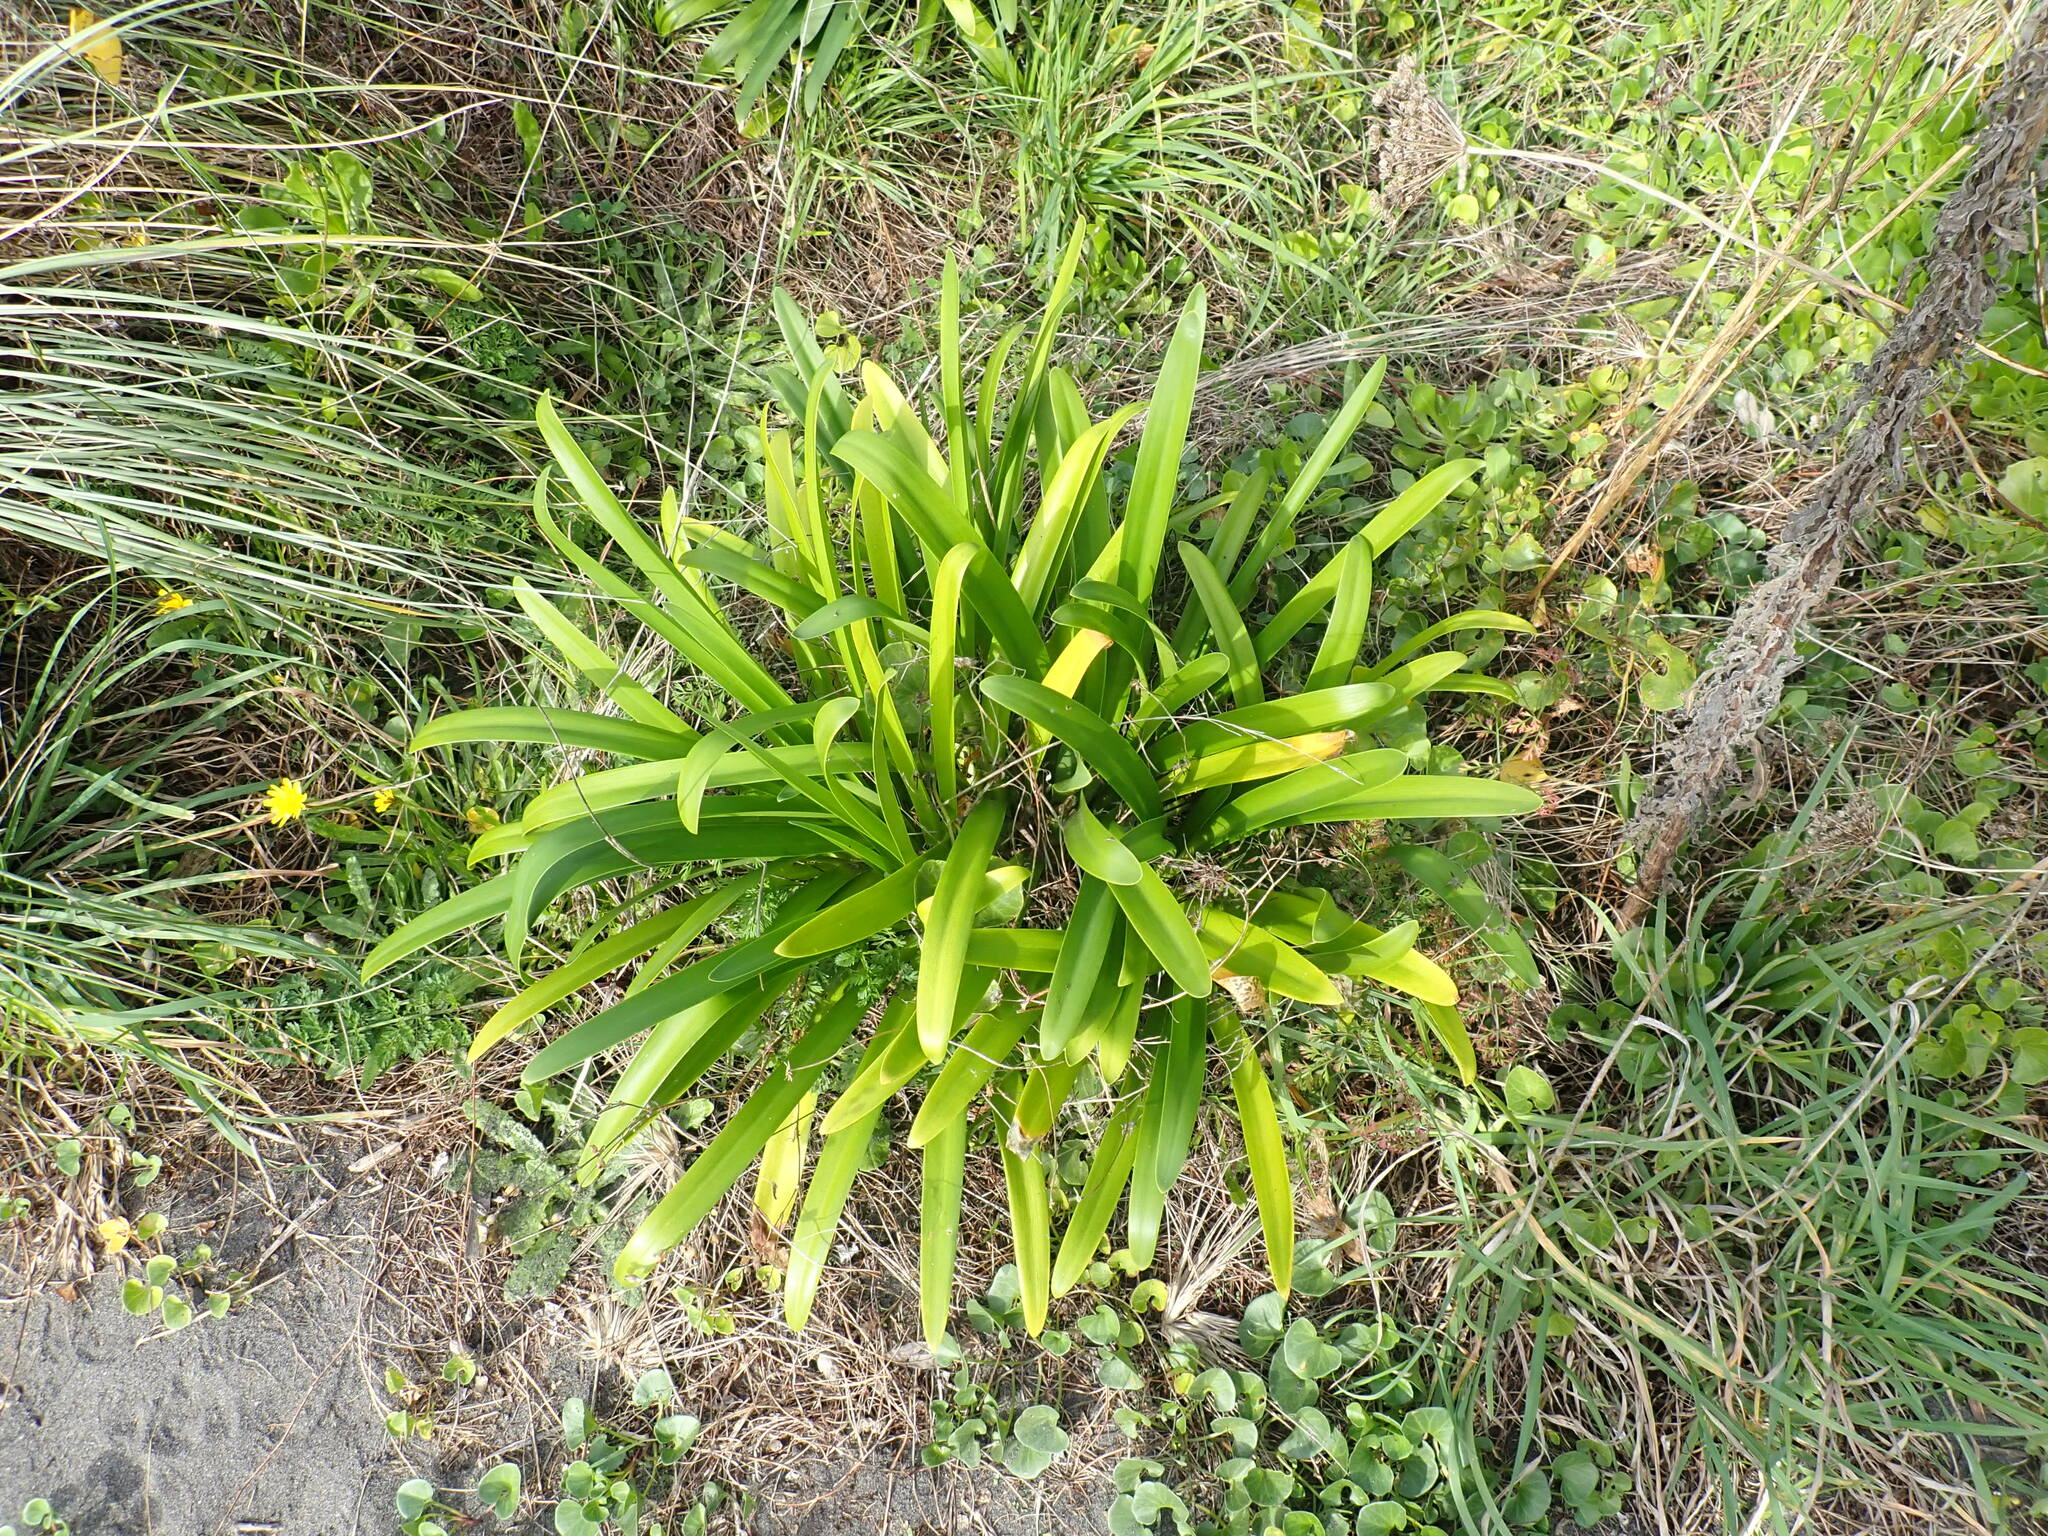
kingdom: Plantae
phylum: Tracheophyta
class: Liliopsida
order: Asparagales
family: Amaryllidaceae
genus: Agapanthus
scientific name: Agapanthus praecox
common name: African-lily
